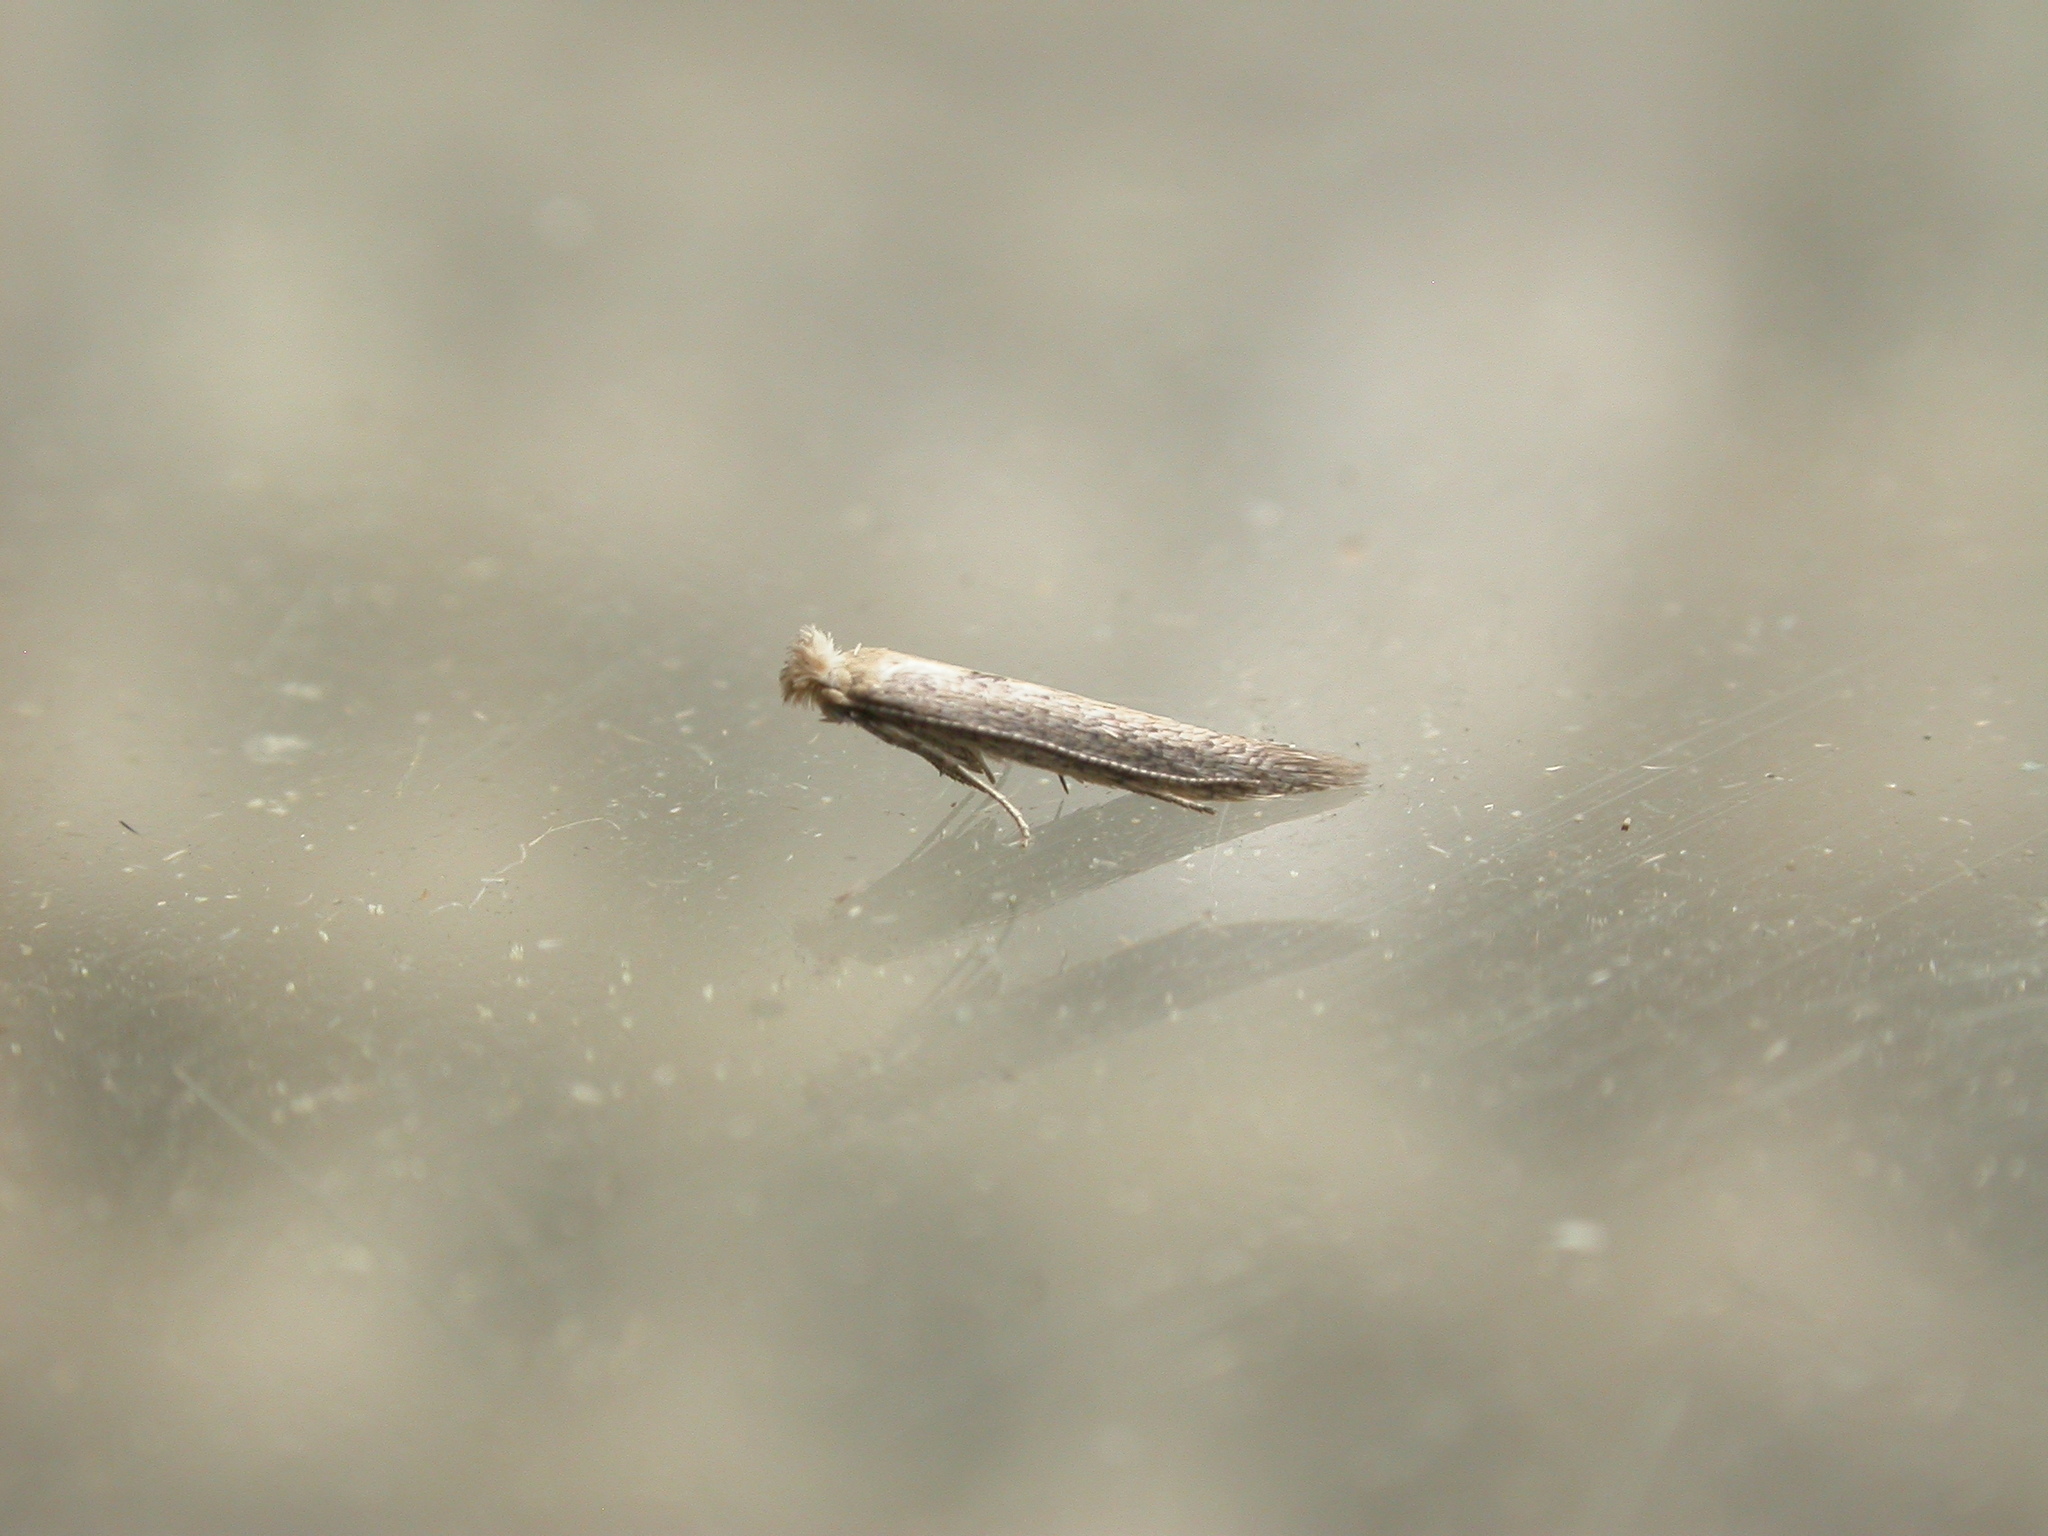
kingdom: Animalia
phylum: Arthropoda
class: Insecta
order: Lepidoptera
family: Bedelliidae
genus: Bedellia
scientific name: Bedellia somnulentella
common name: Morning-glory leafminer moth
